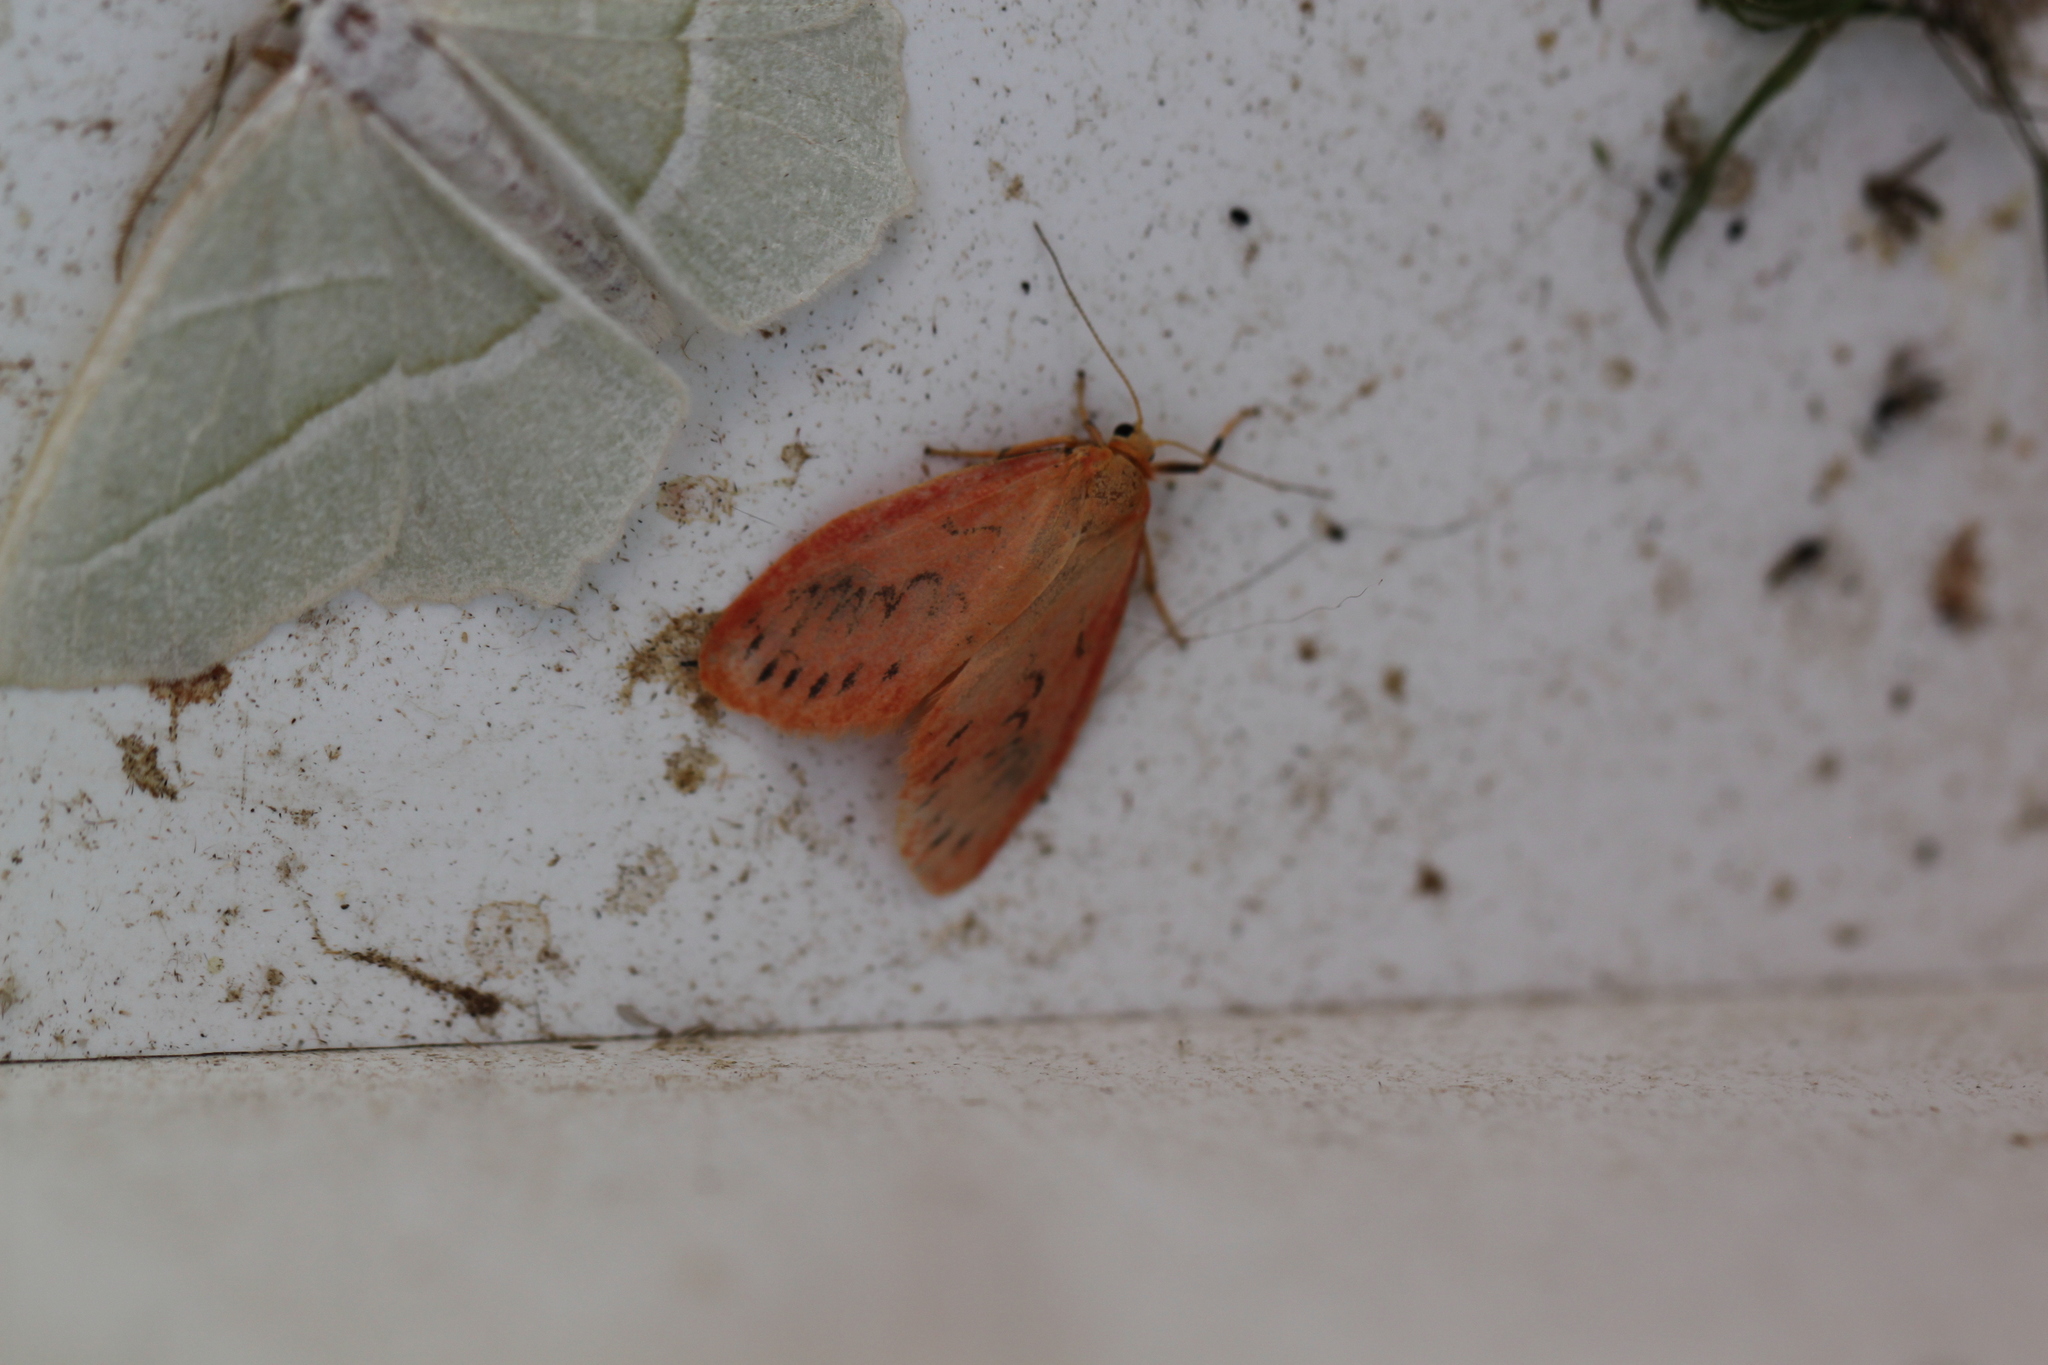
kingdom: Animalia
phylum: Arthropoda
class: Insecta
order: Lepidoptera
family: Erebidae
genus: Miltochrista
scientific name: Miltochrista miniata
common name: Rosy footman
